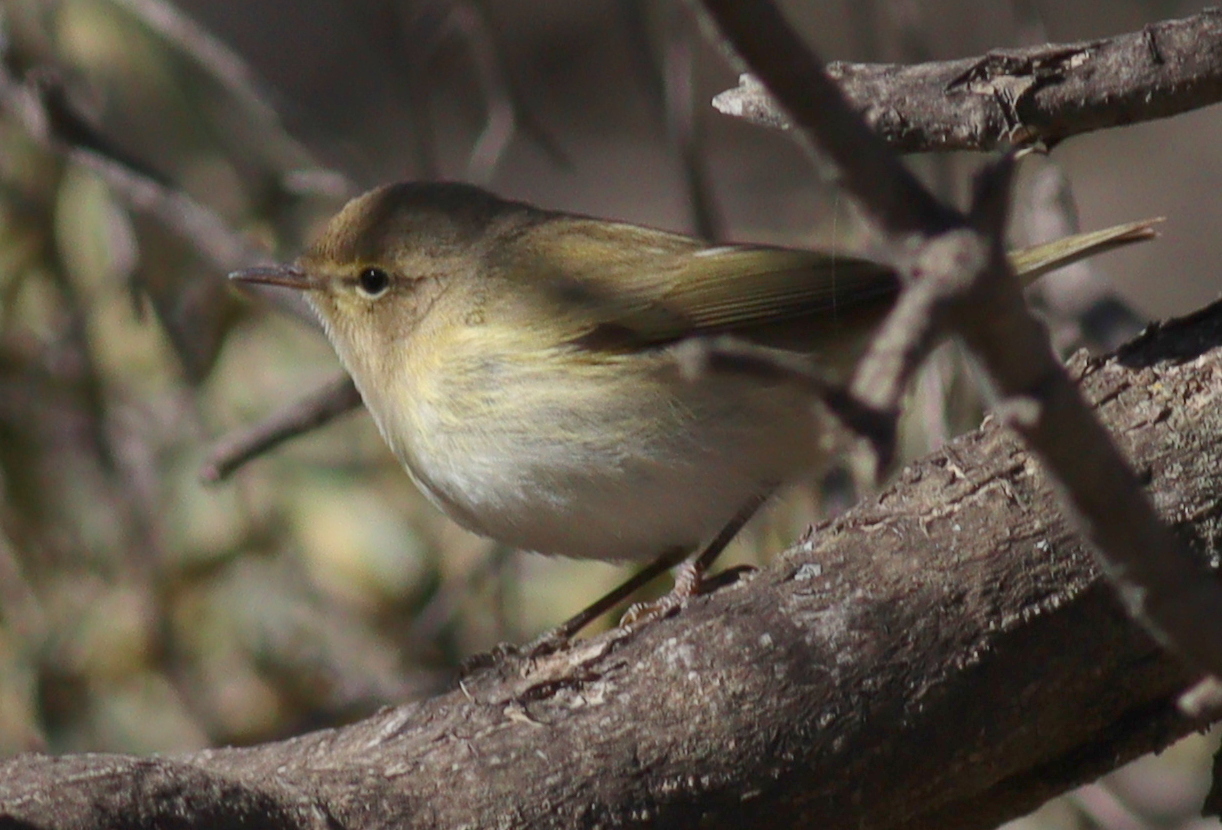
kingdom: Animalia
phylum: Chordata
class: Aves
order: Passeriformes
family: Phylloscopidae
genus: Phylloscopus
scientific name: Phylloscopus collybita
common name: Common chiffchaff
